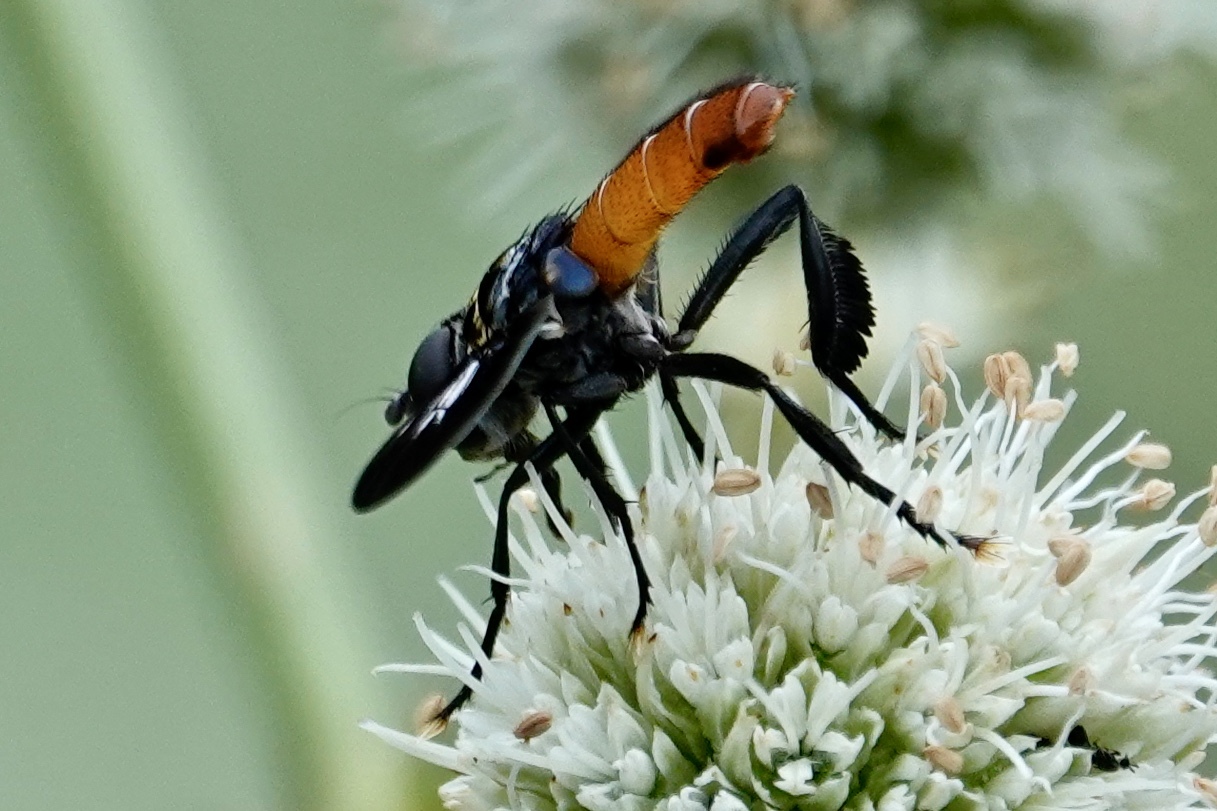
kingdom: Animalia
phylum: Arthropoda
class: Insecta
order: Diptera
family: Tachinidae
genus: Trichopoda
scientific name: Trichopoda pennipes
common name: Tachinid fly
